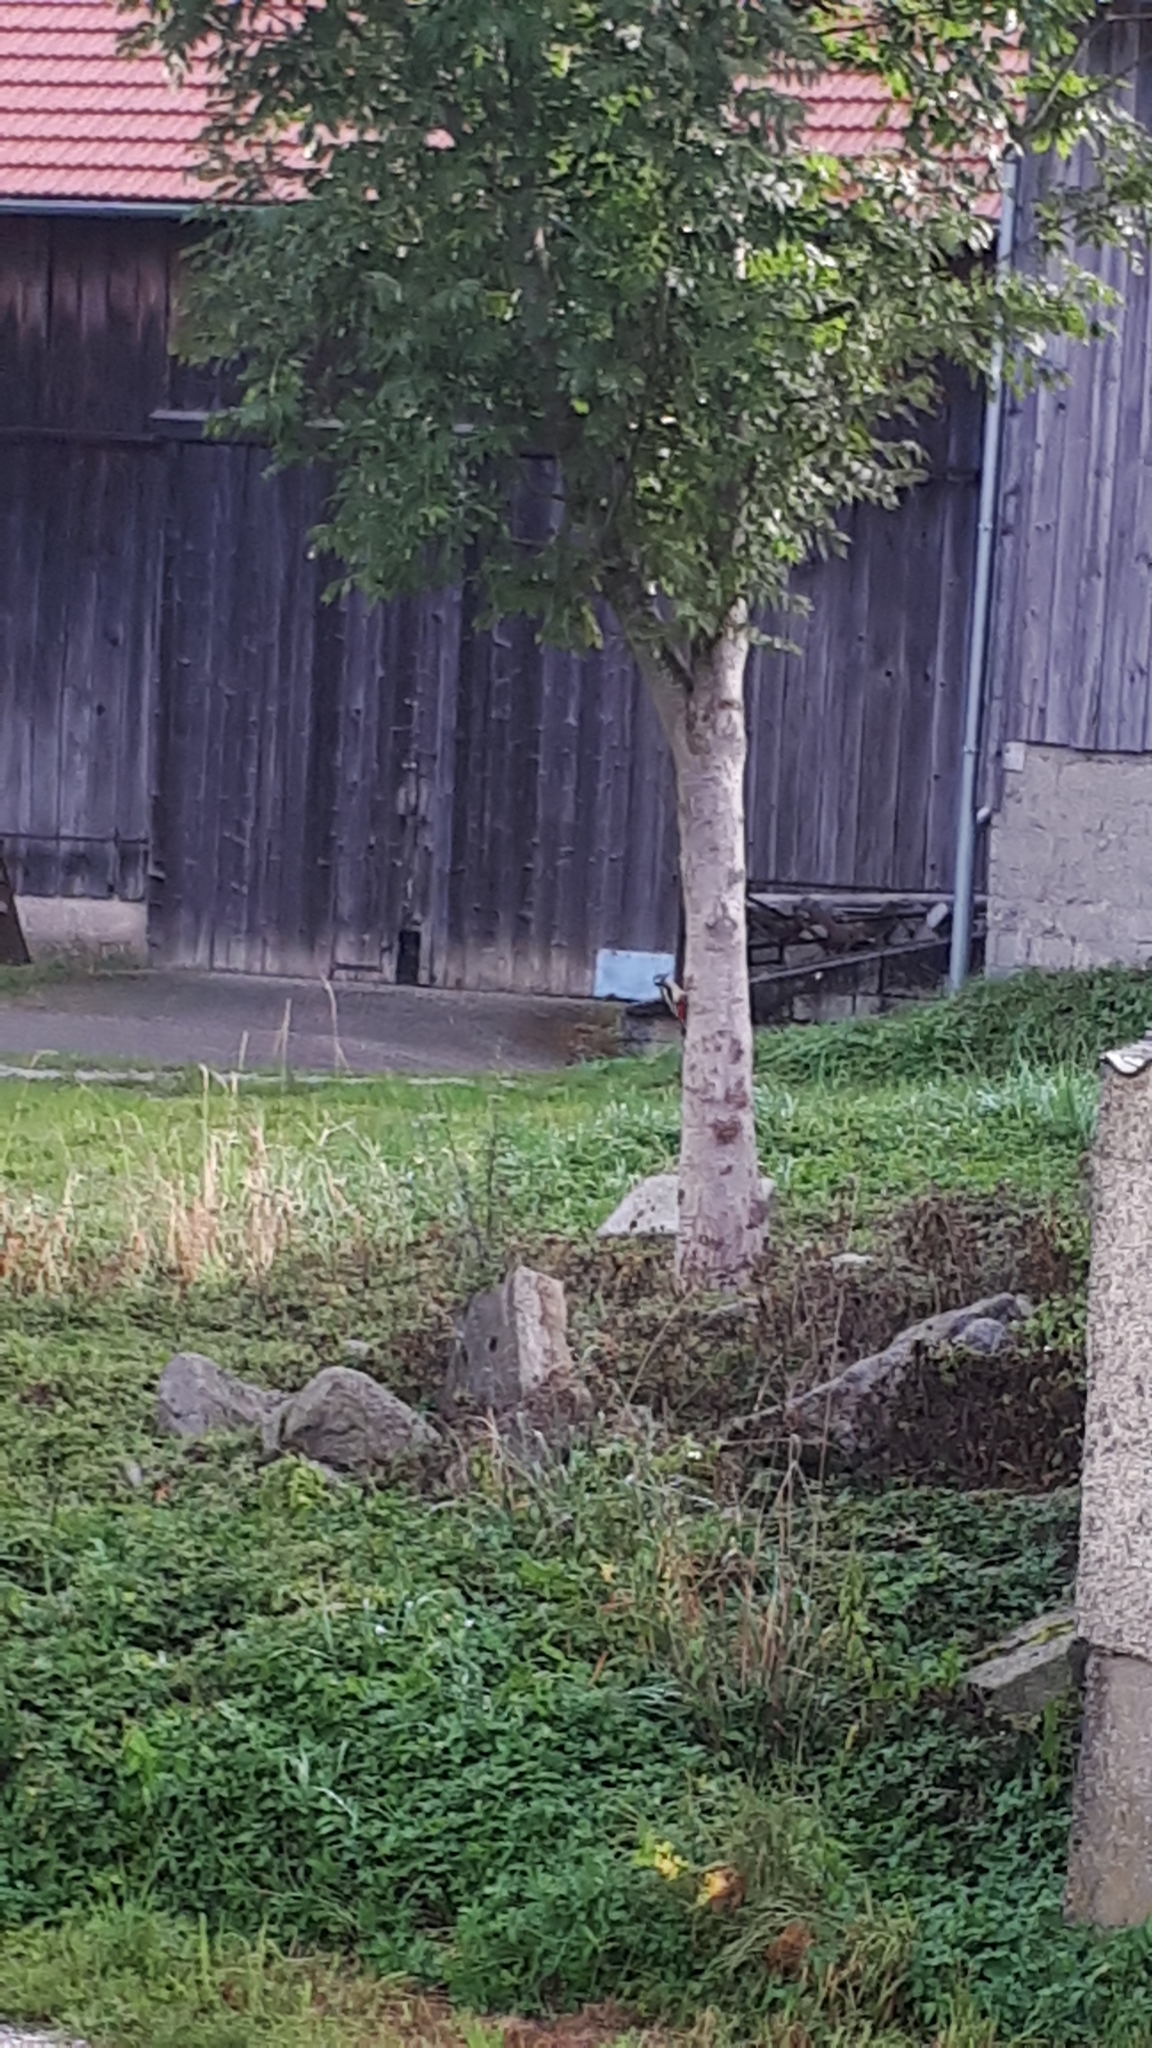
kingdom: Animalia
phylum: Chordata
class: Aves
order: Piciformes
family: Picidae
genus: Dendrocopos
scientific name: Dendrocopos major
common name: Great spotted woodpecker
